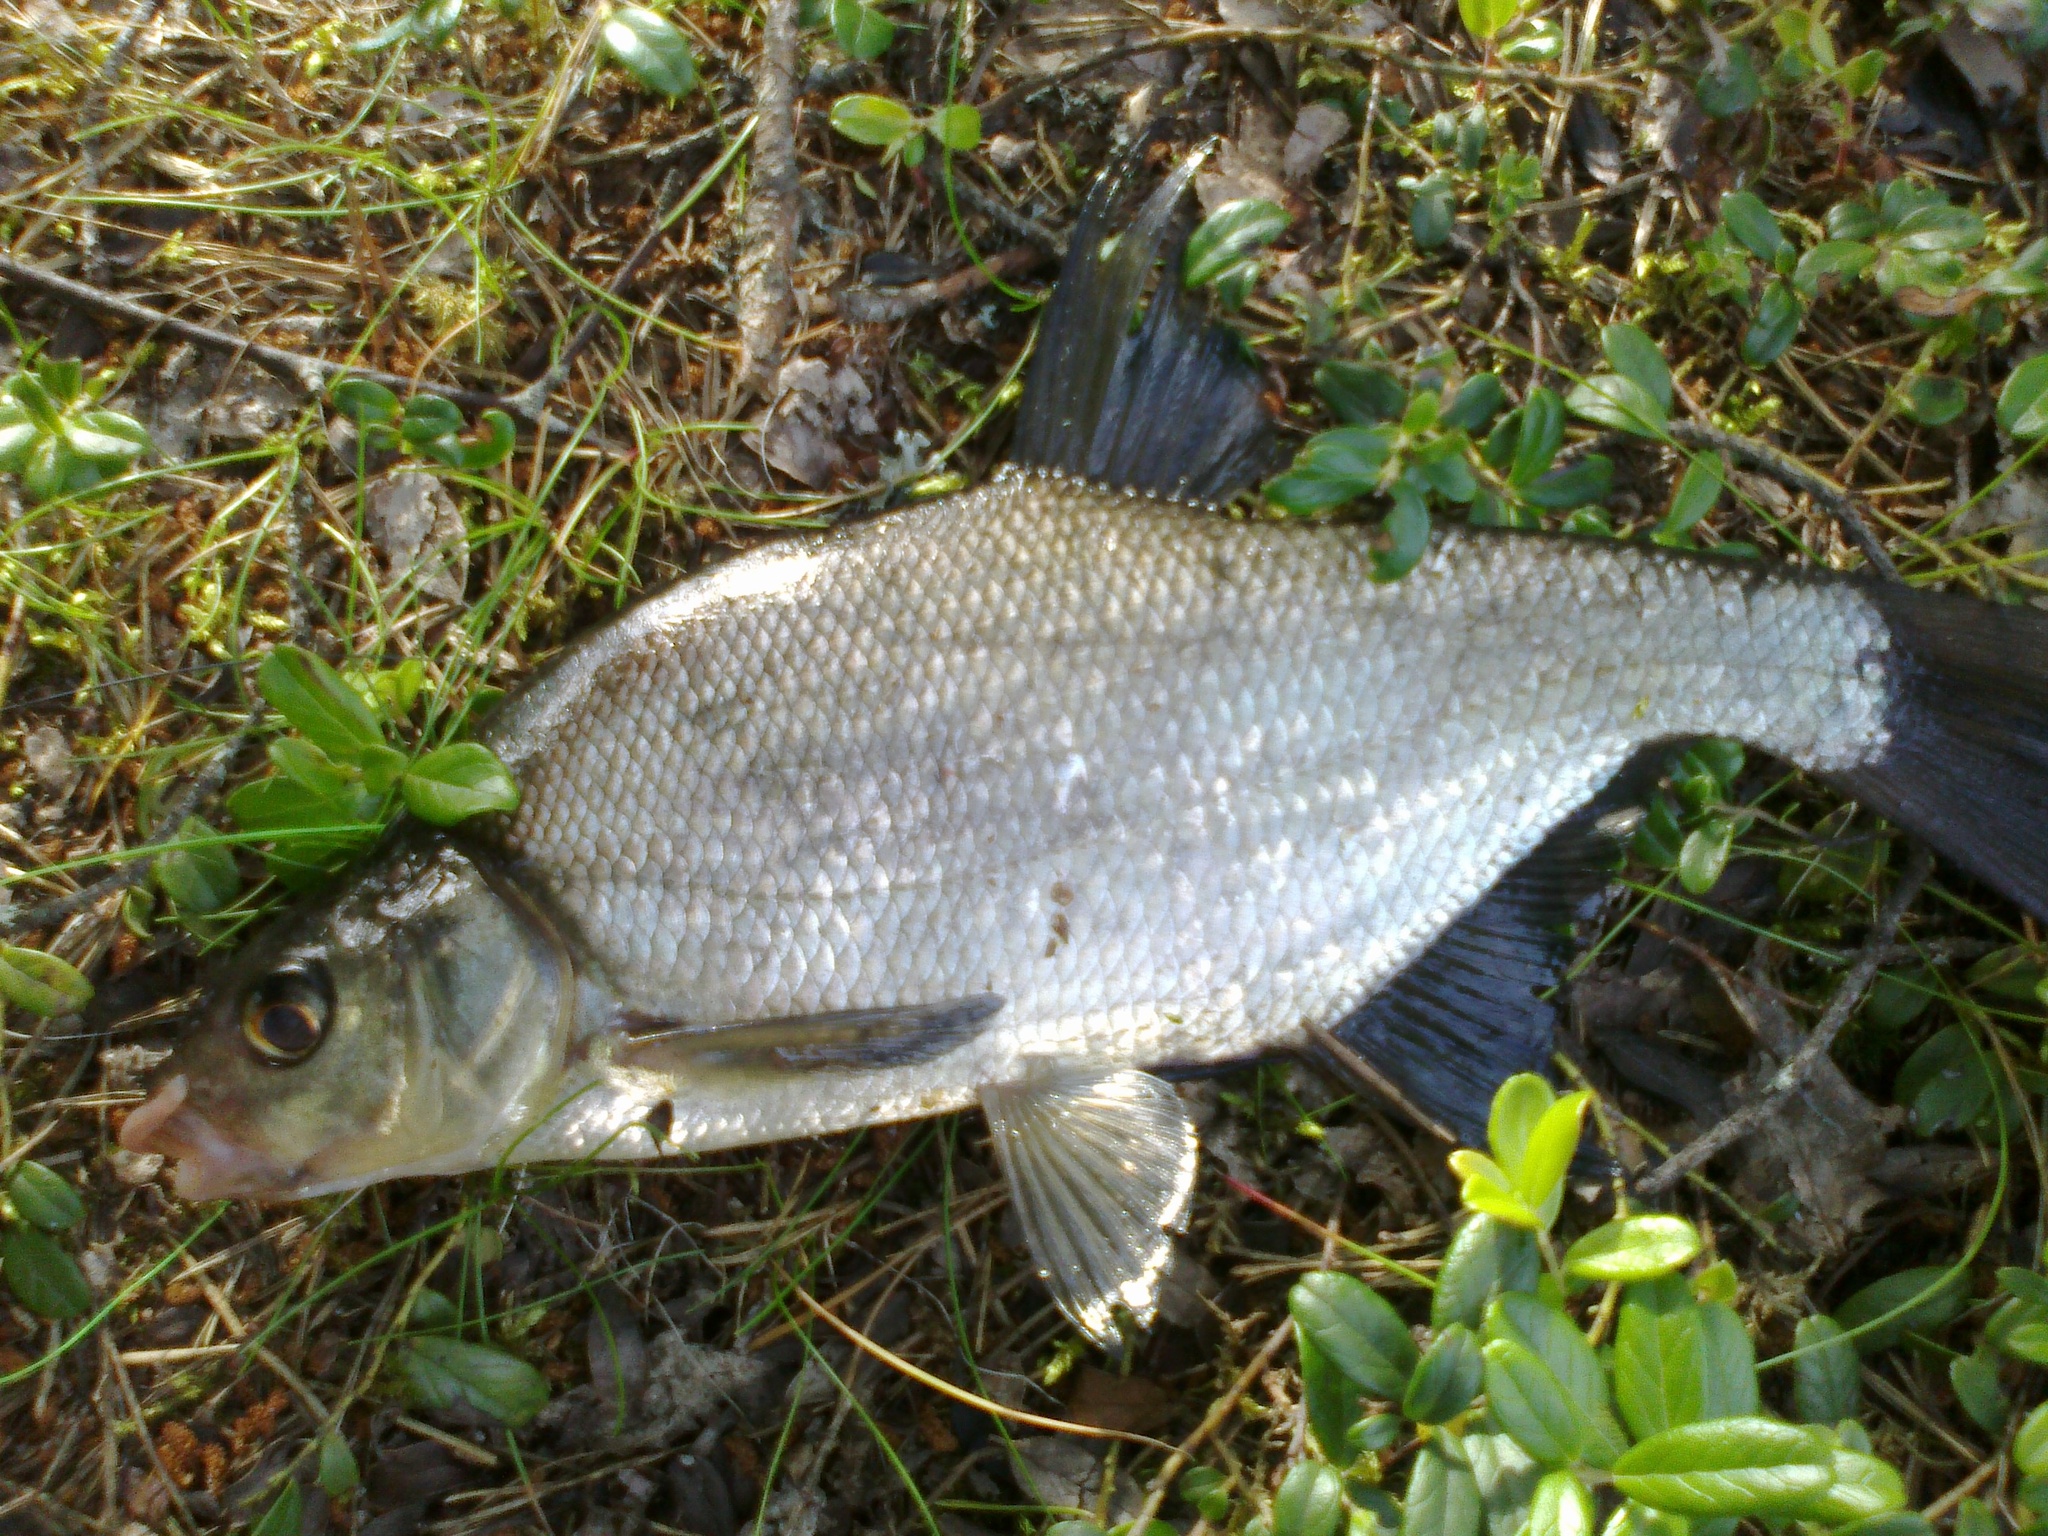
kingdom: Animalia
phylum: Chordata
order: Cypriniformes
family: Cyprinidae
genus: Abramis
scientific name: Abramis brama
